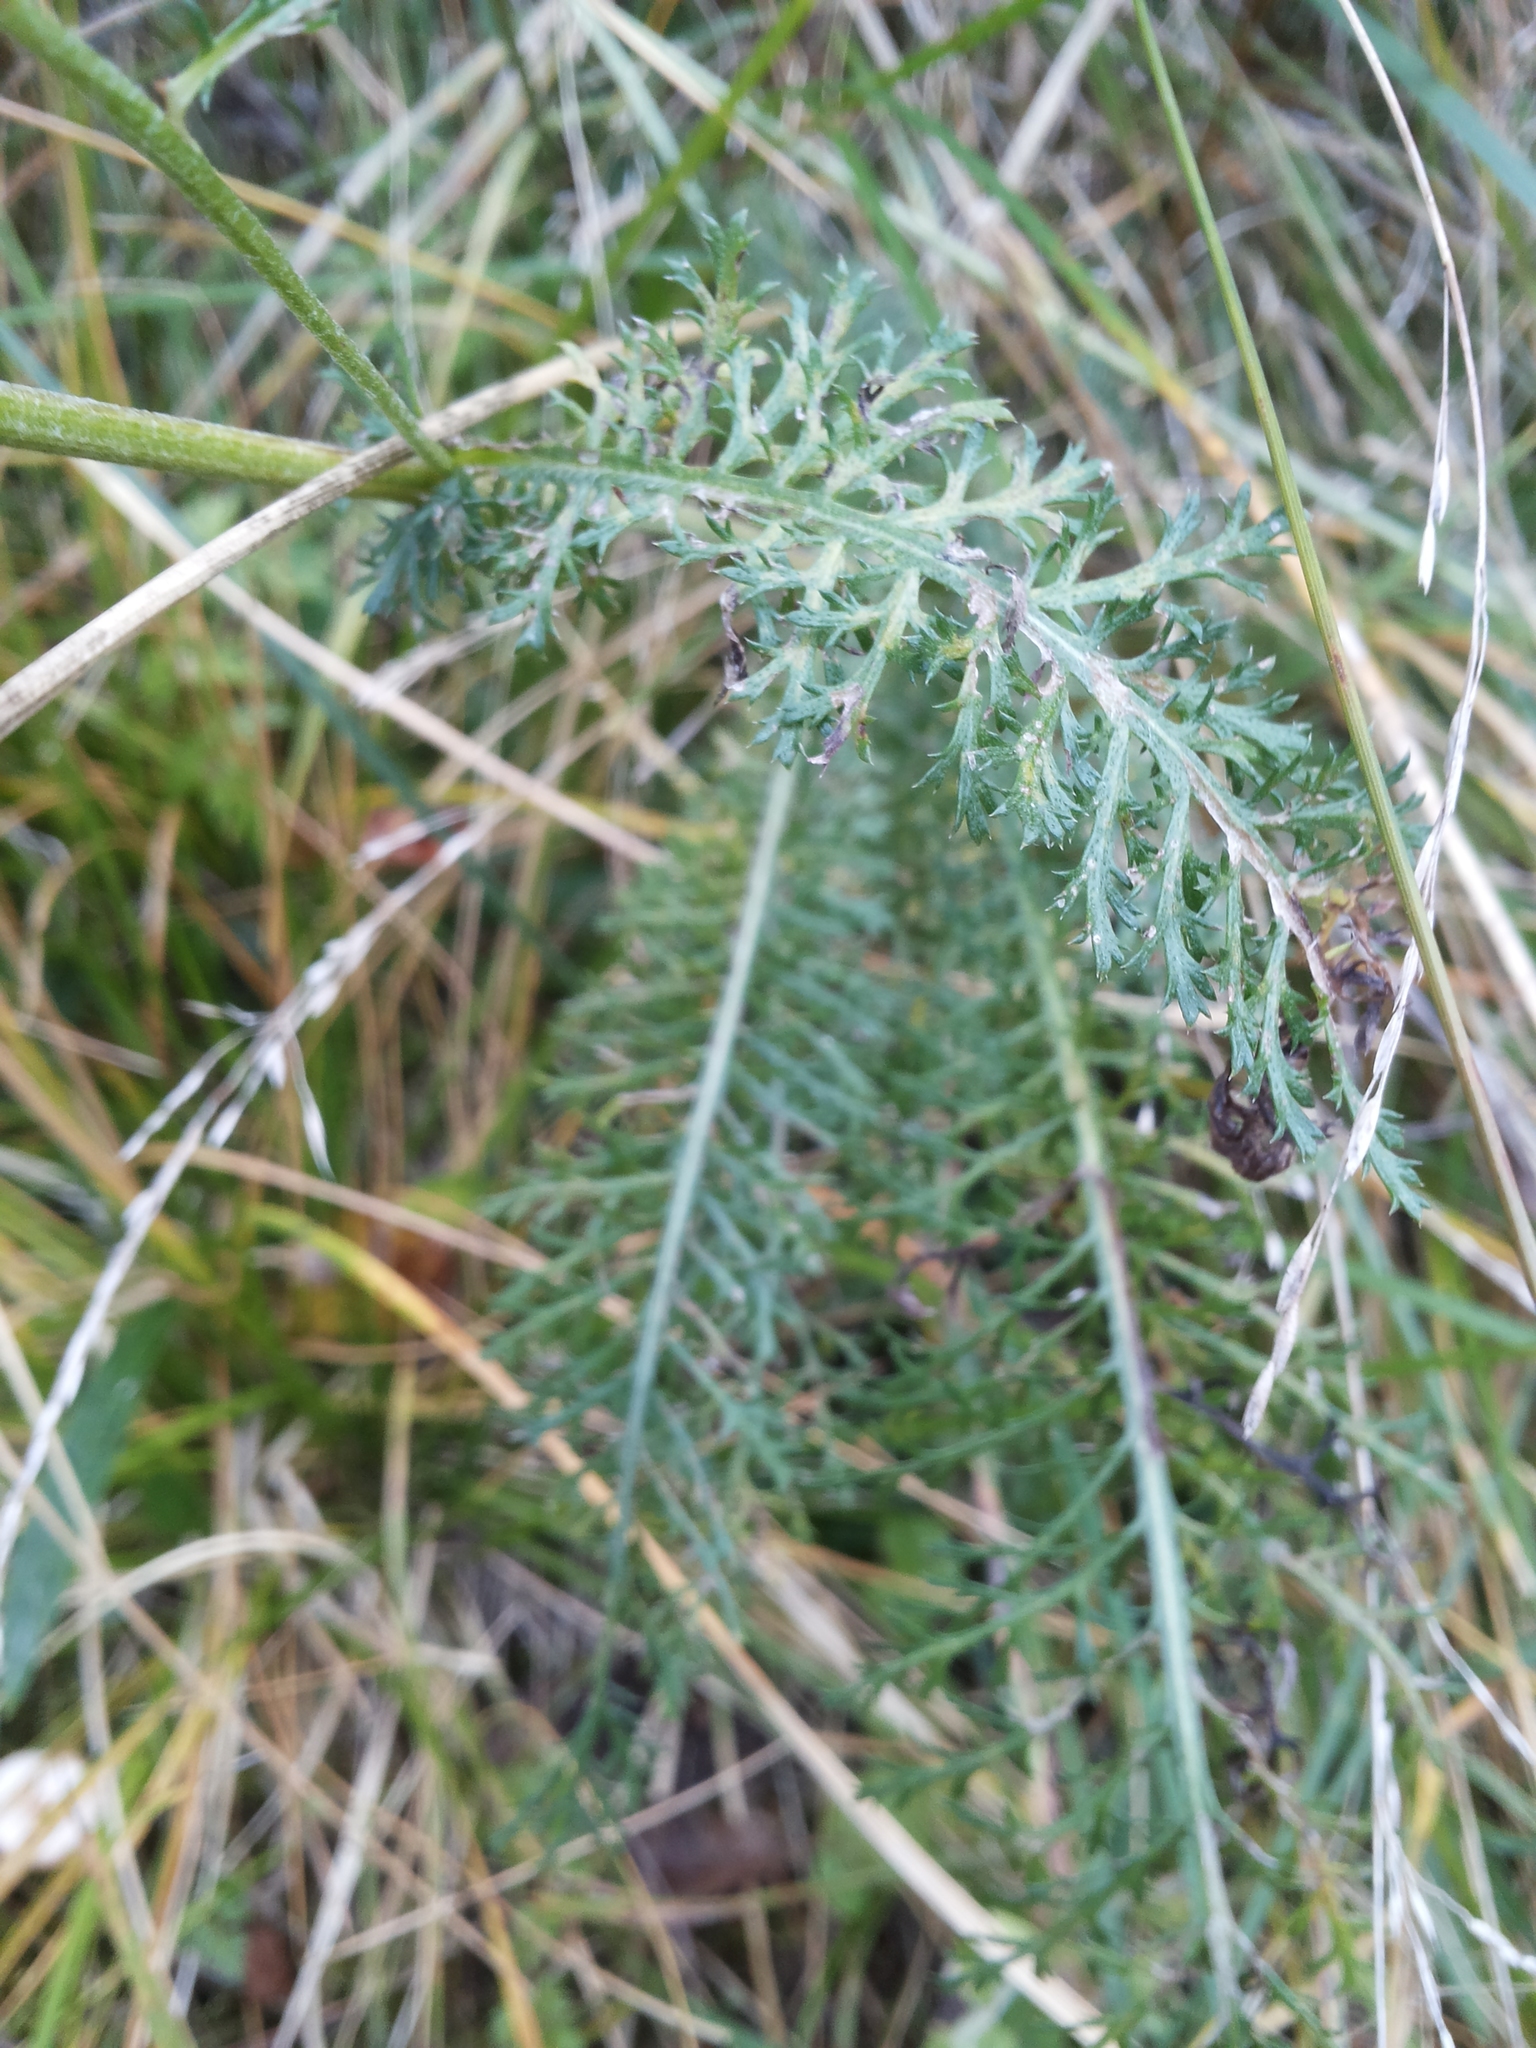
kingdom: Plantae
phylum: Tracheophyta
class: Magnoliopsida
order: Asterales
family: Asteraceae
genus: Achillea
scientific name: Achillea millefolium
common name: Yarrow
